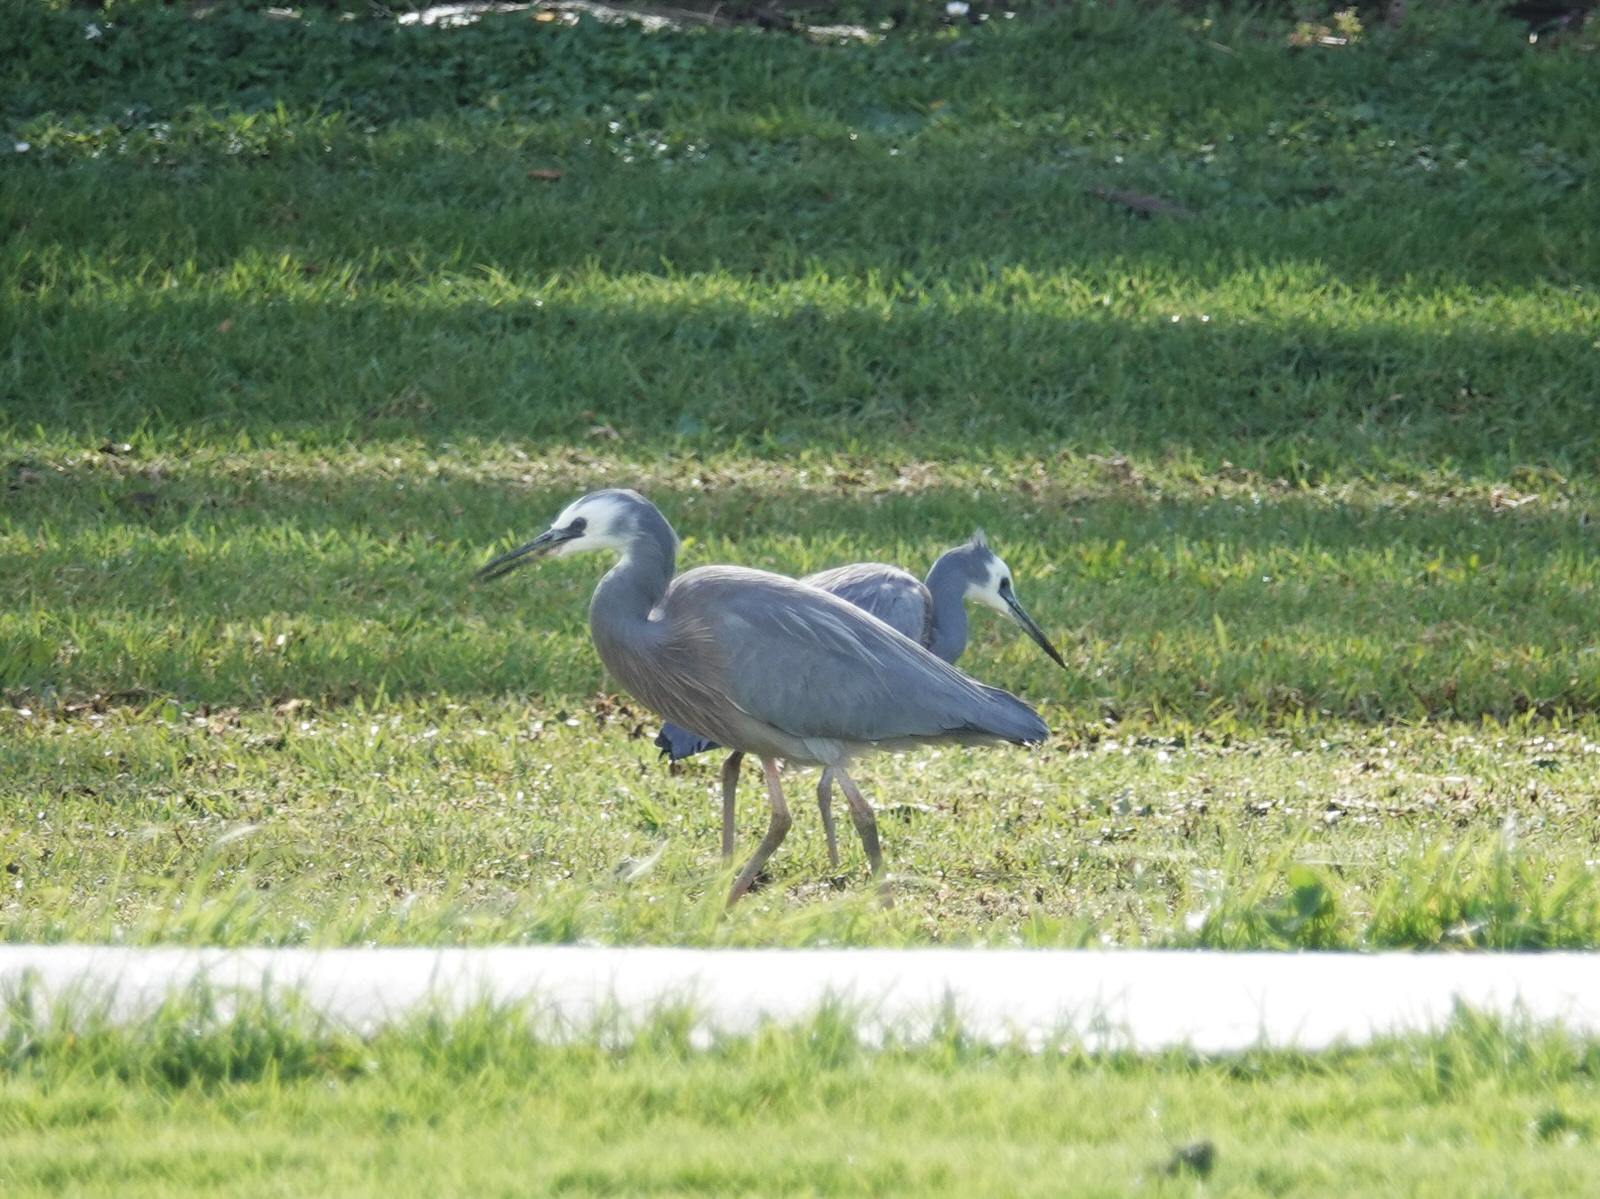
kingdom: Animalia
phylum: Chordata
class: Aves
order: Pelecaniformes
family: Ardeidae
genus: Egretta
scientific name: Egretta novaehollandiae
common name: White-faced heron
